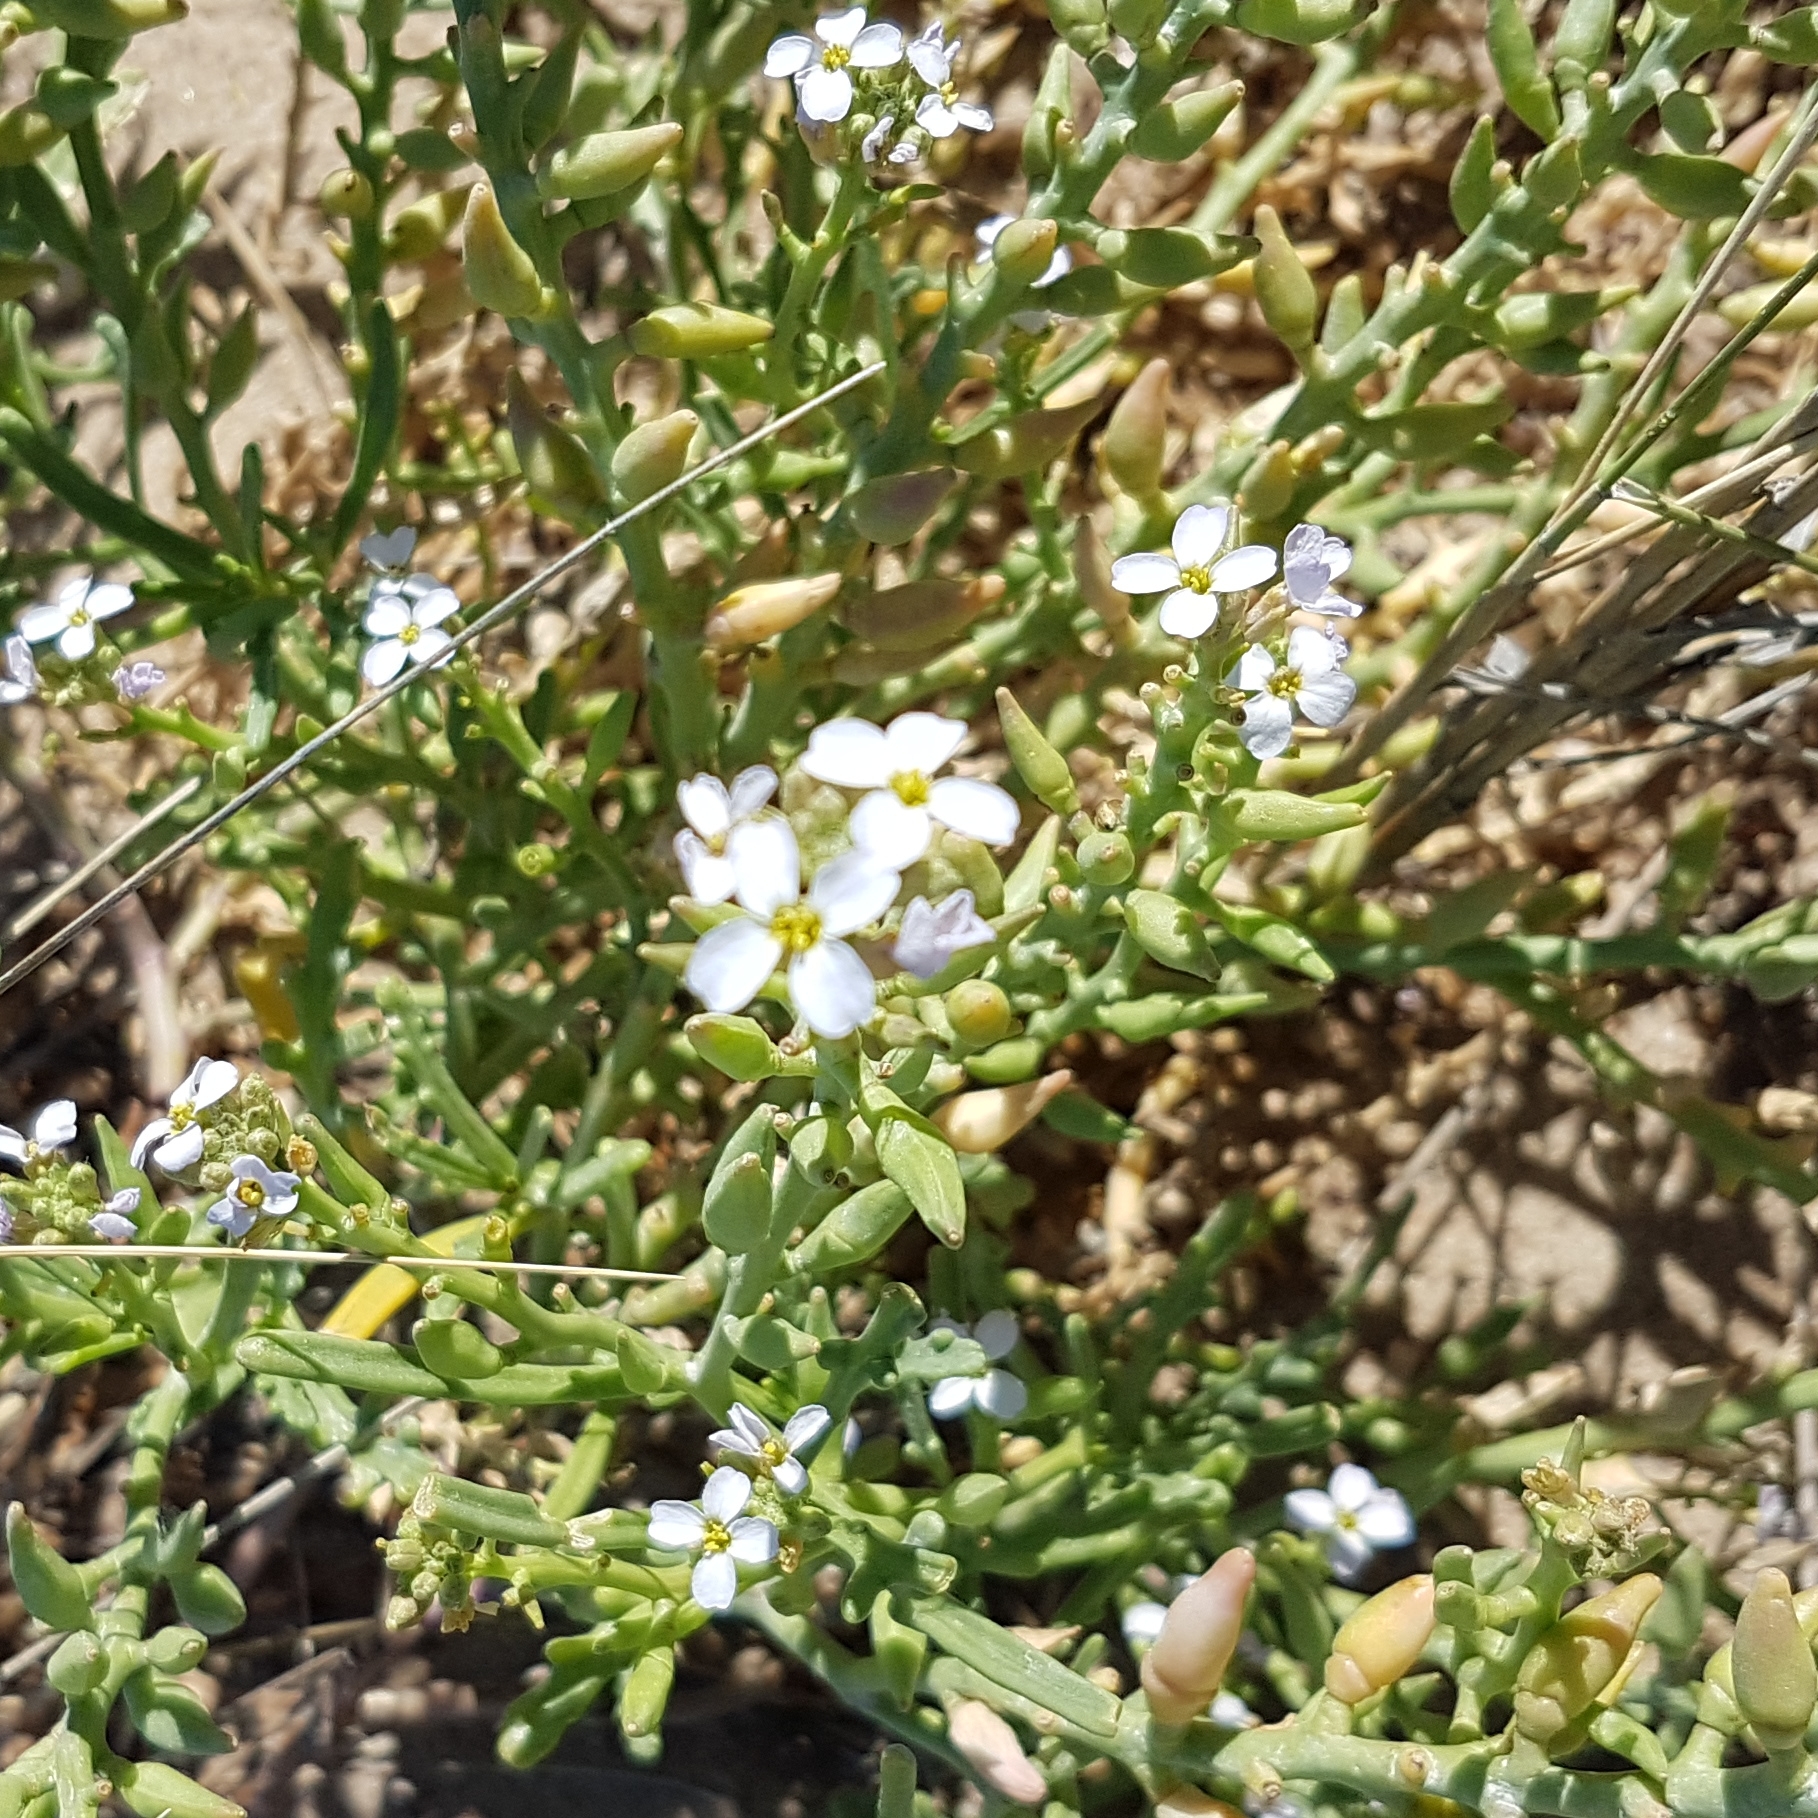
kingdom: Plantae
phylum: Tracheophyta
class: Magnoliopsida
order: Brassicales
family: Brassicaceae
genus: Cakile
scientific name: Cakile maritima
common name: Sea rocket
